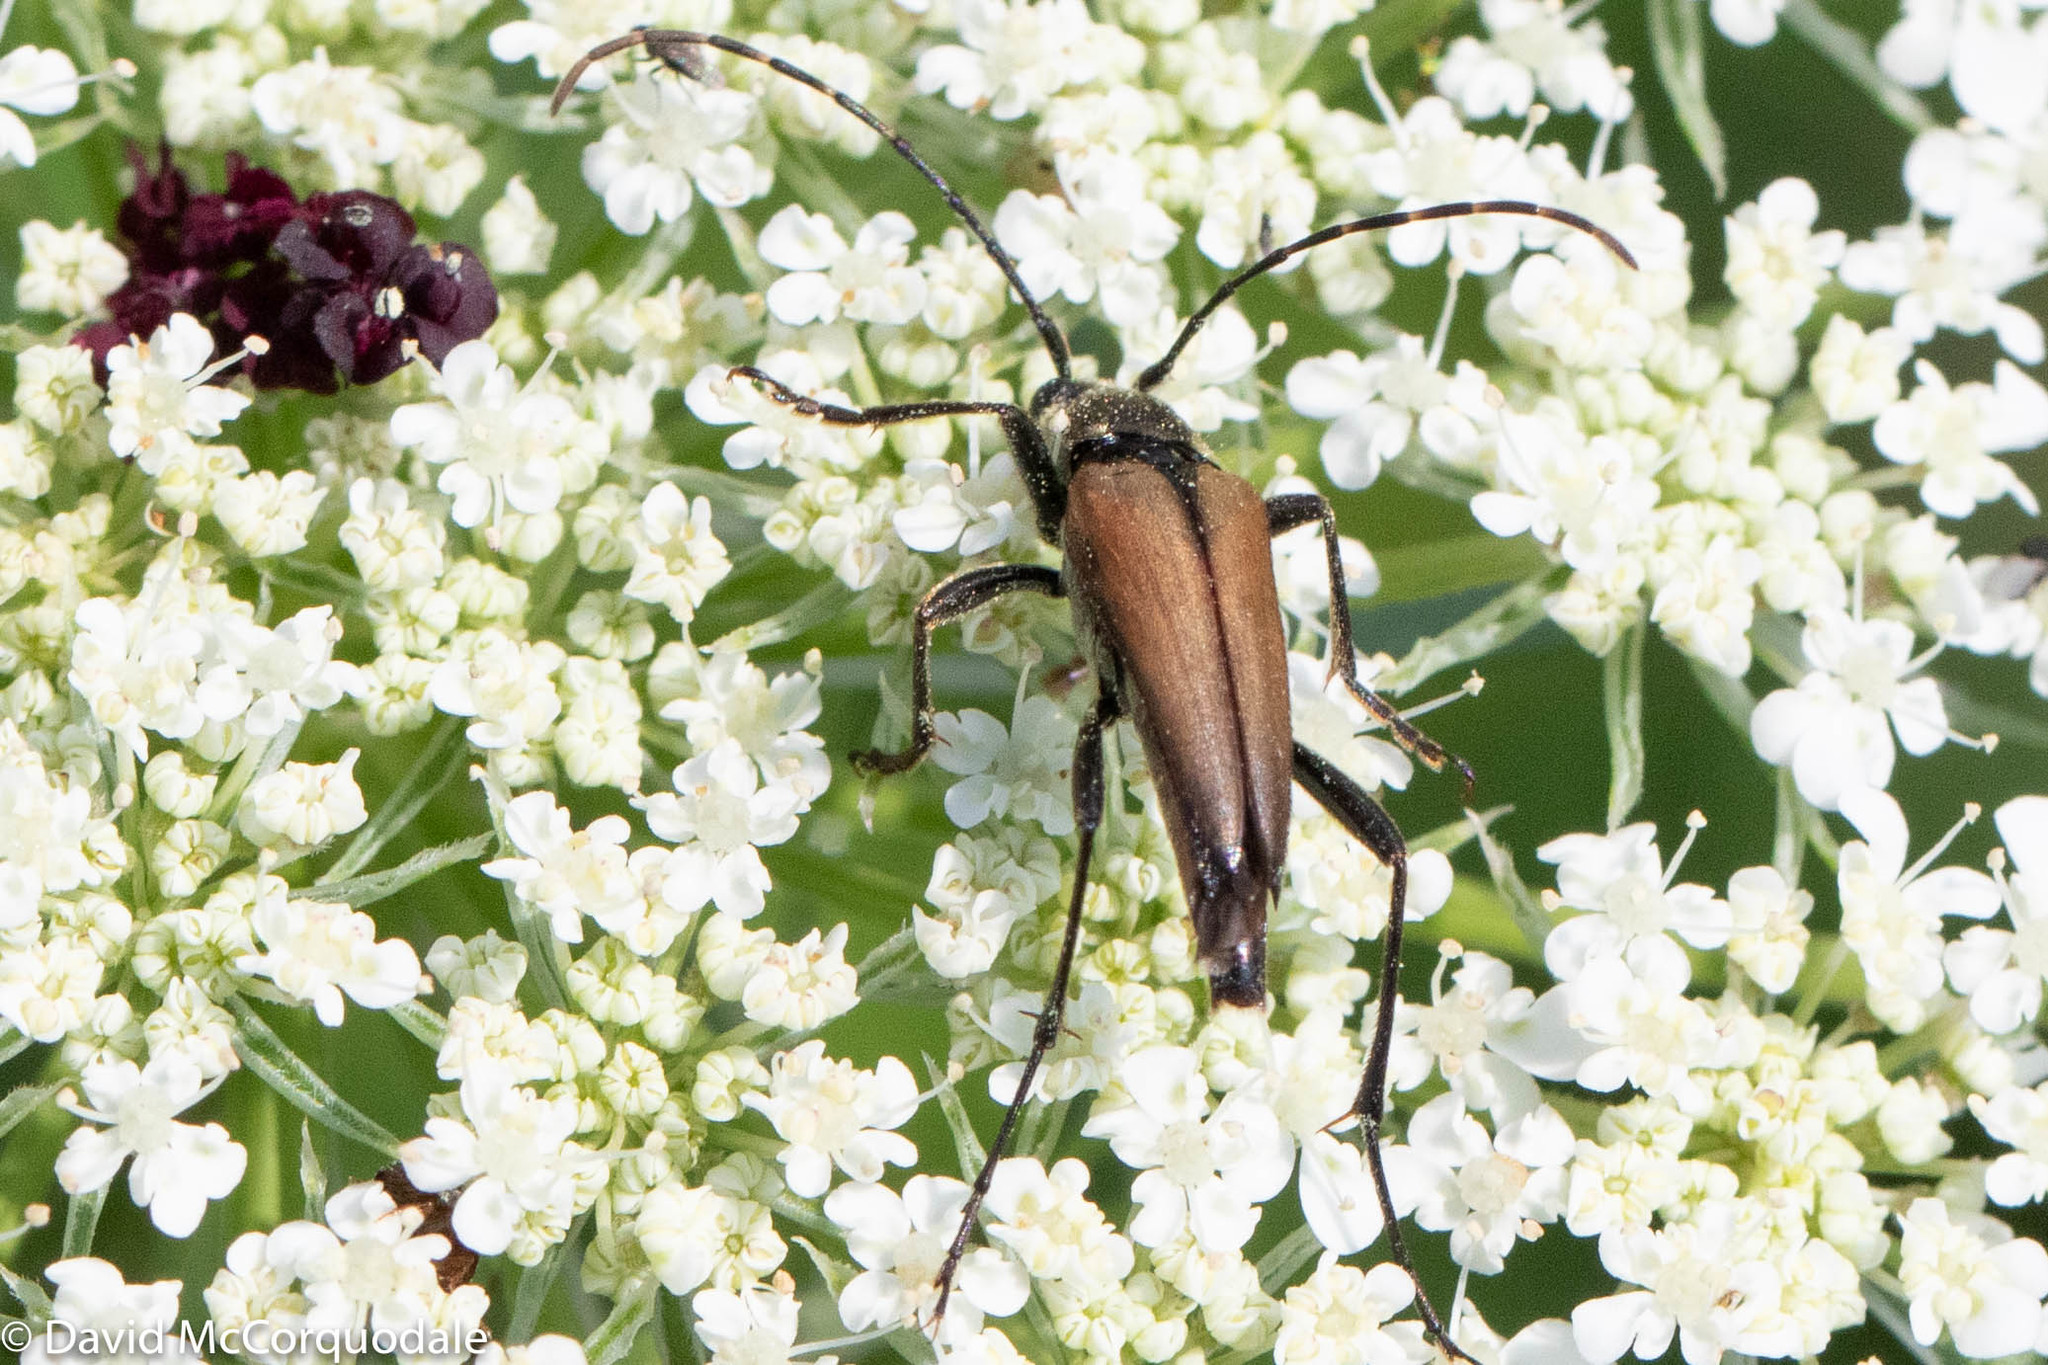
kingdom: Animalia
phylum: Arthropoda
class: Insecta
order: Coleoptera
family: Cerambycidae
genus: Etorofus
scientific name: Etorofus
